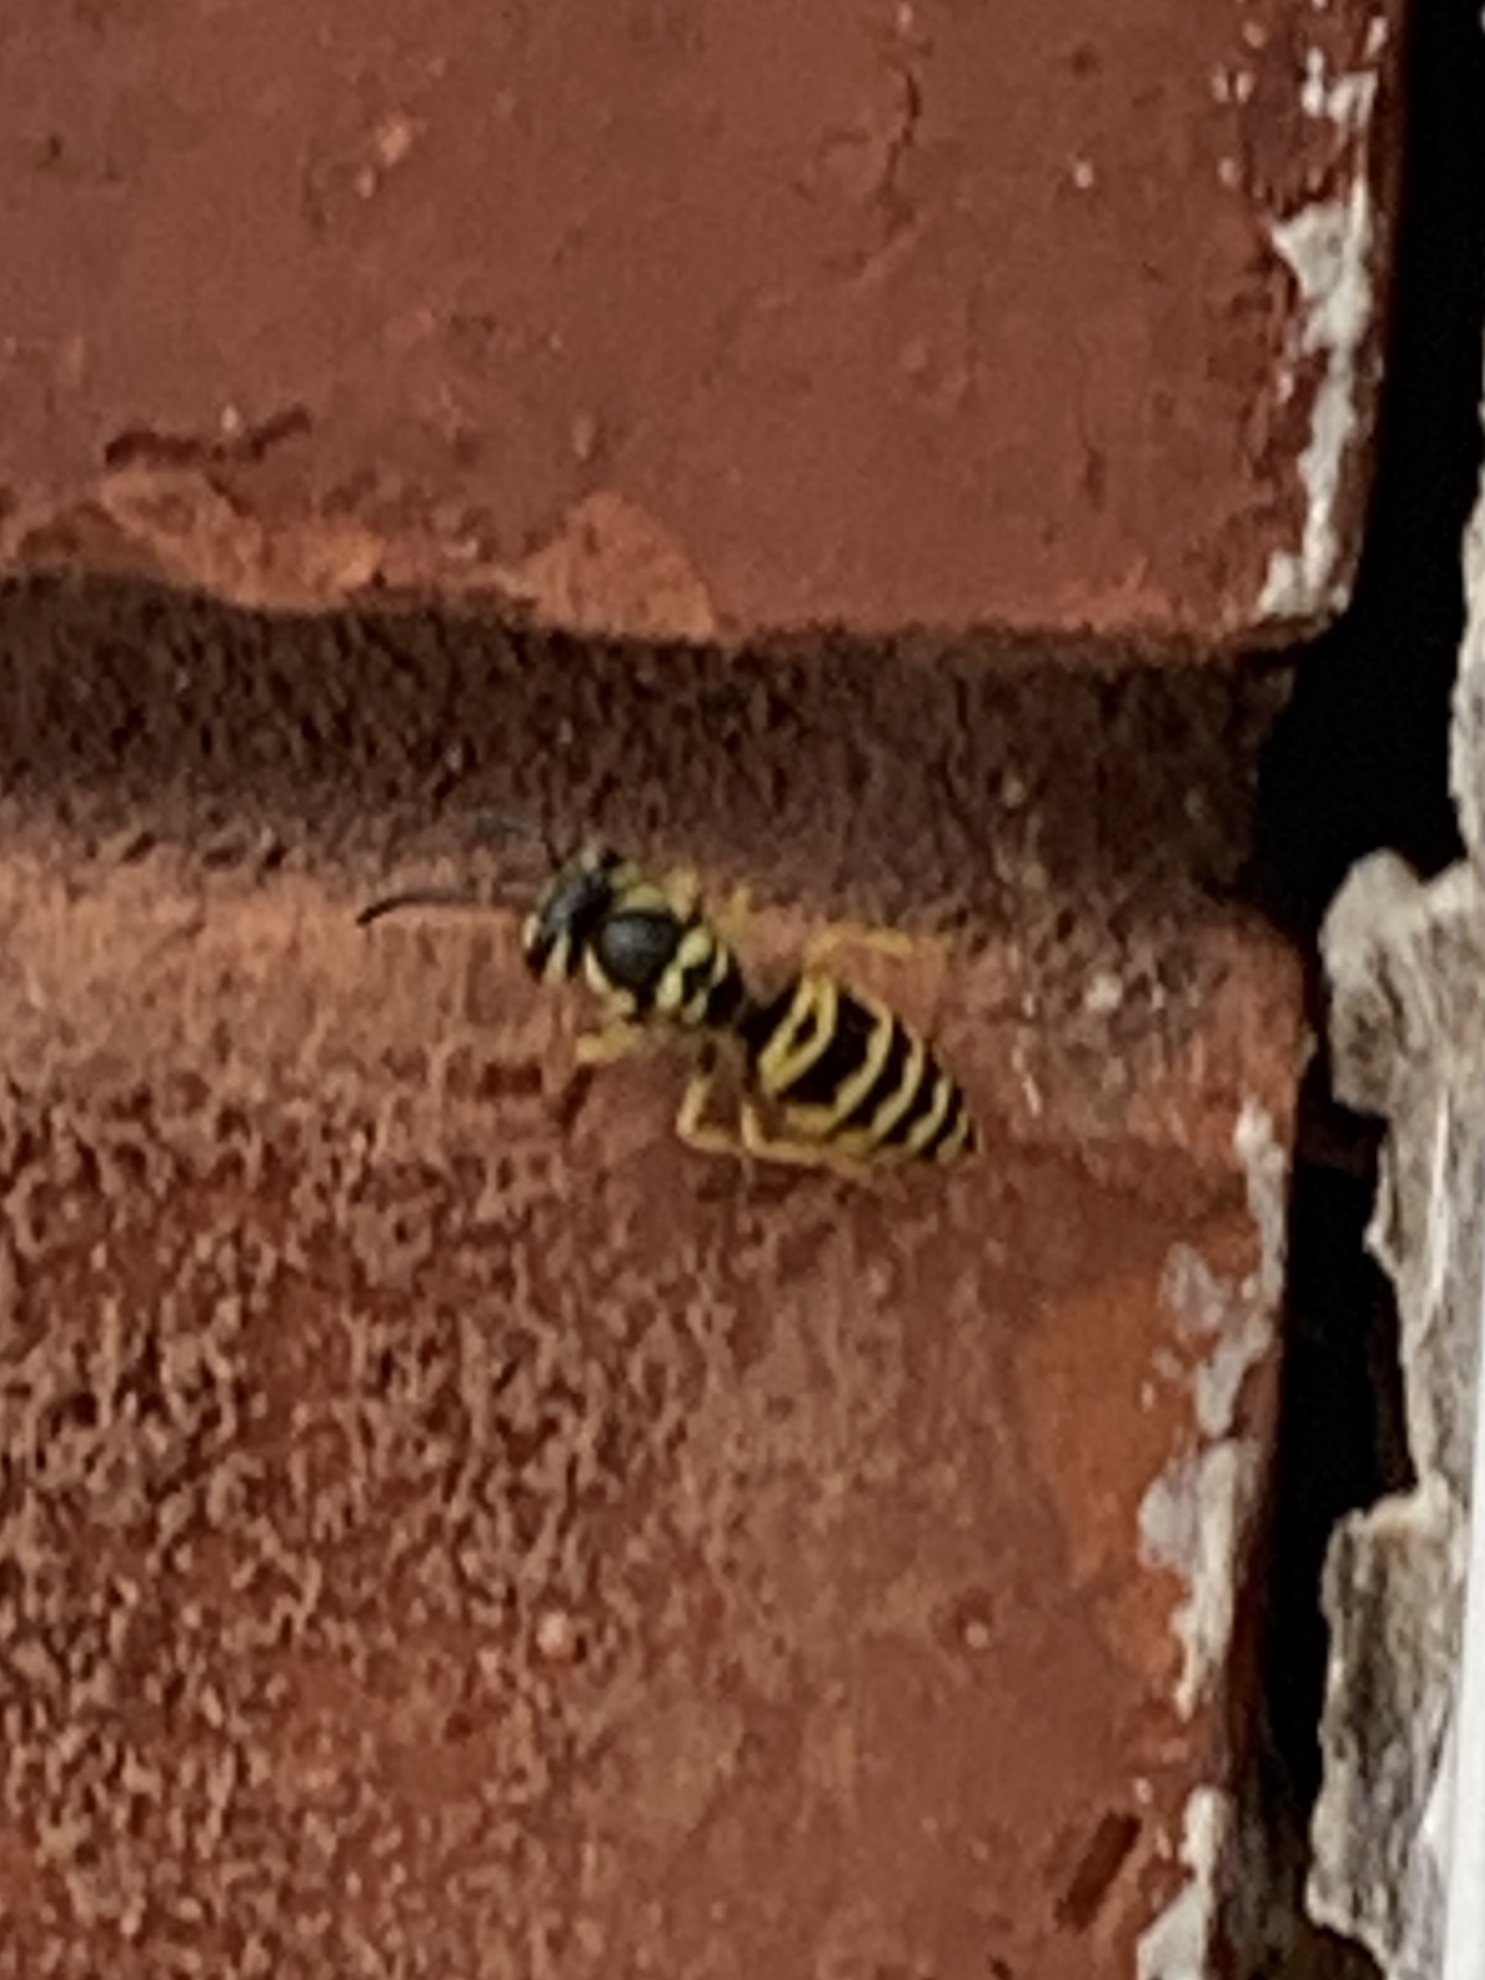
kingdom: Animalia
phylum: Arthropoda
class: Insecta
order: Hymenoptera
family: Vespidae
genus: Vespula
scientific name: Vespula maculifrons
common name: Eastern yellowjacket
